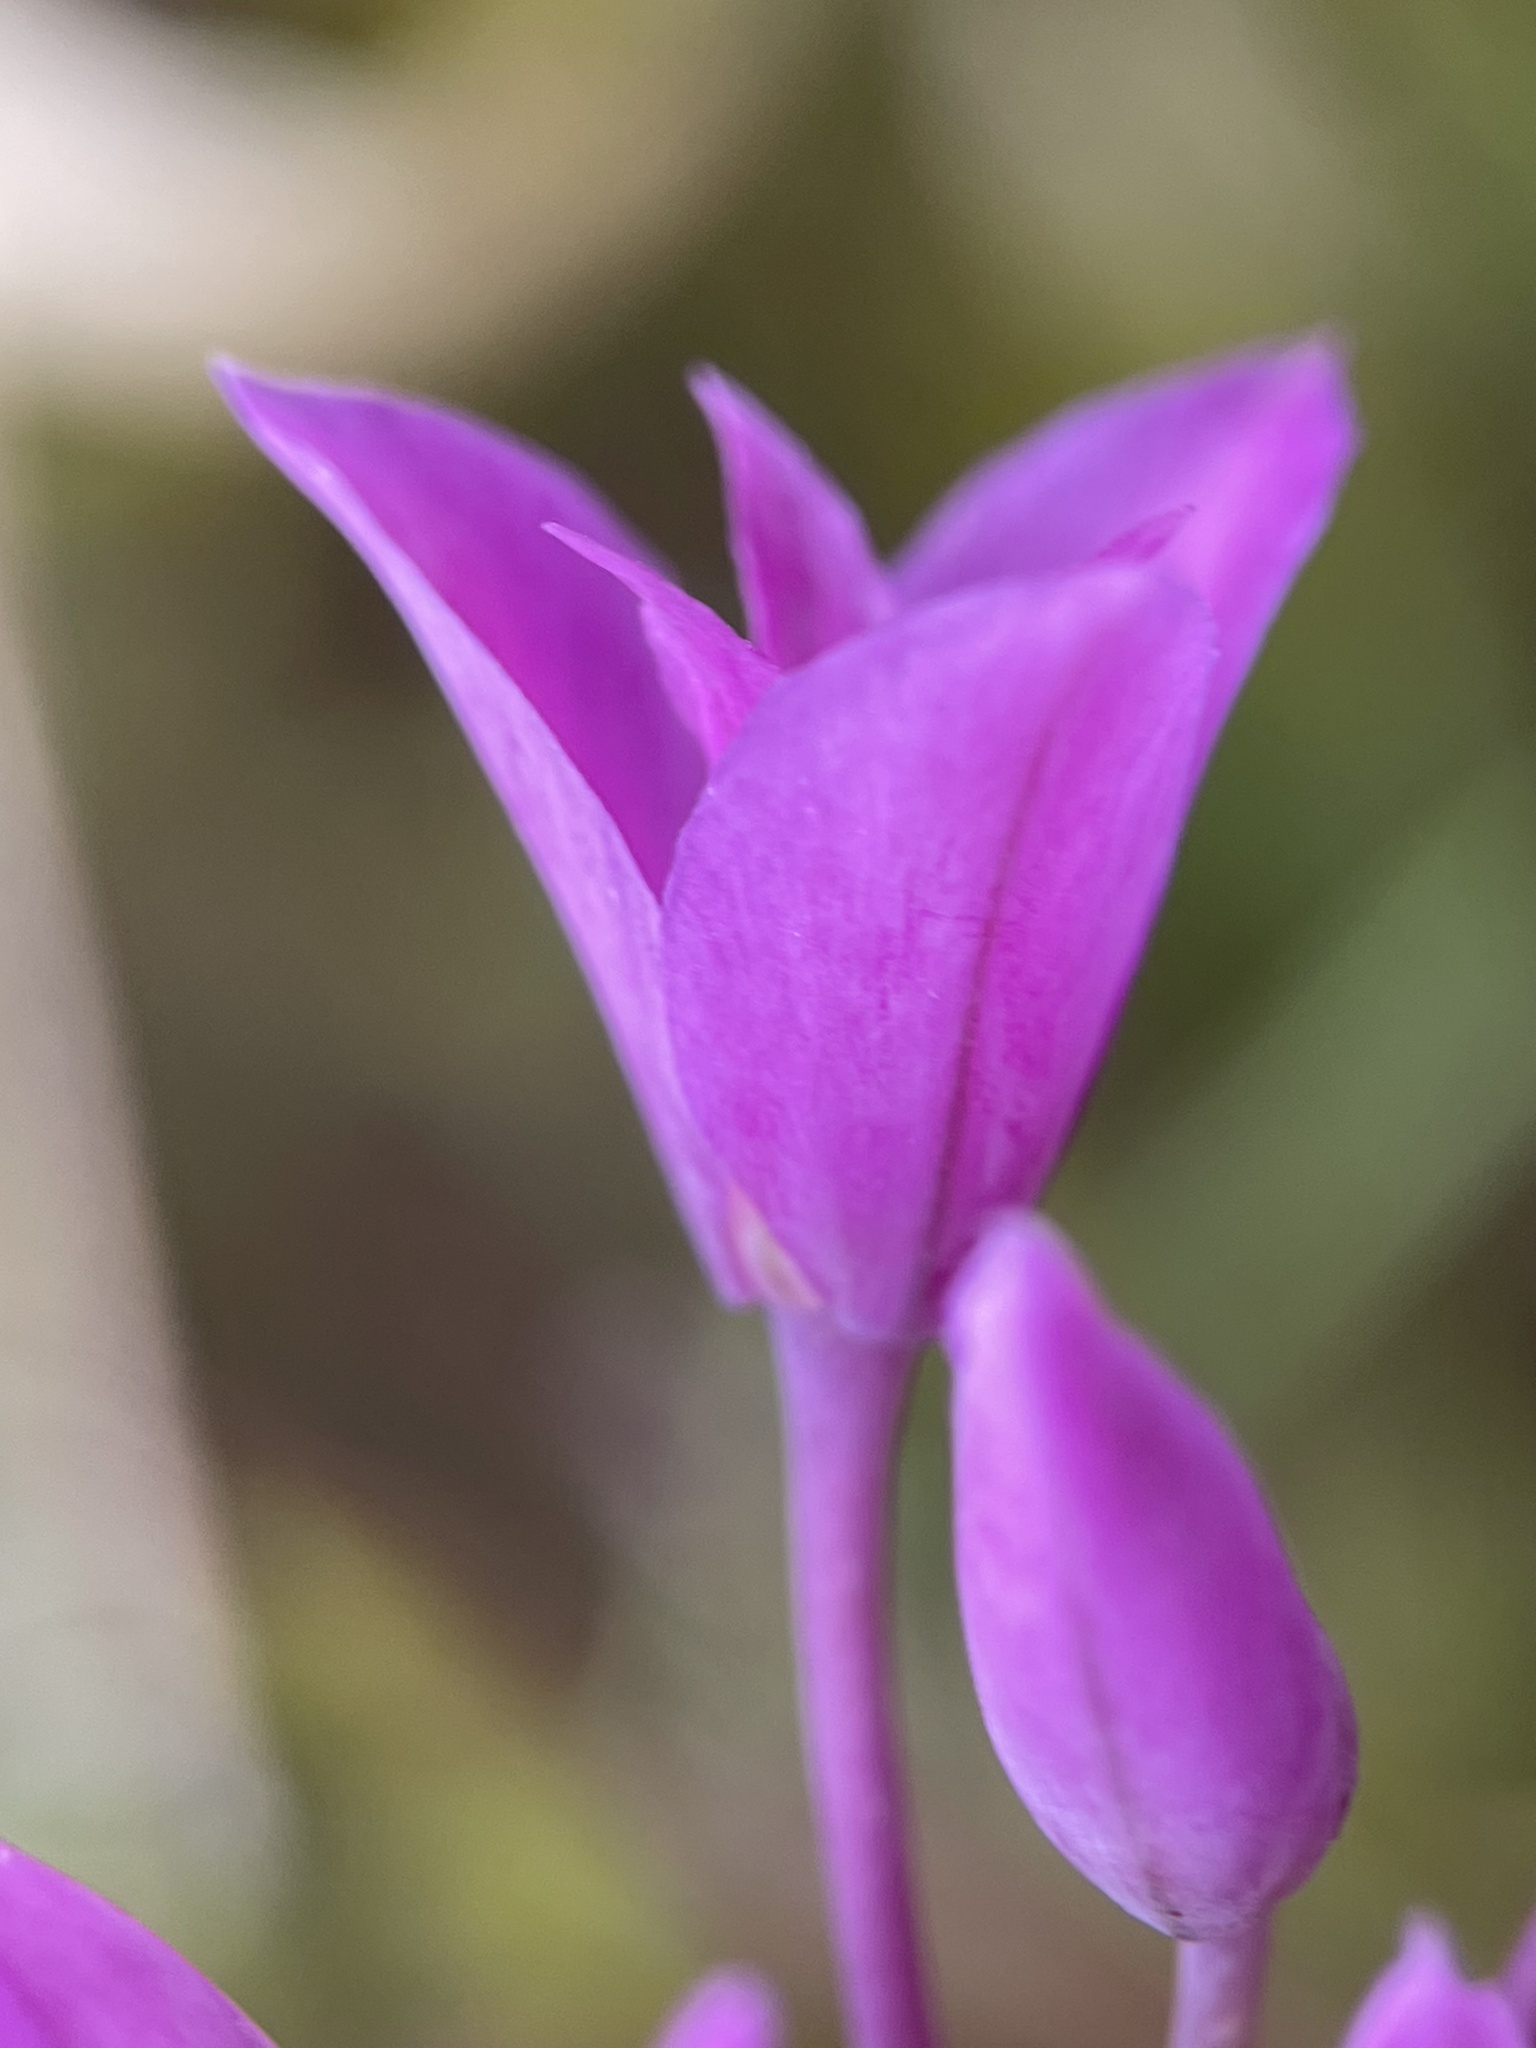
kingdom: Plantae
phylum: Tracheophyta
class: Liliopsida
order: Asparagales
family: Amaryllidaceae
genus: Allium
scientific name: Allium peninsulare
